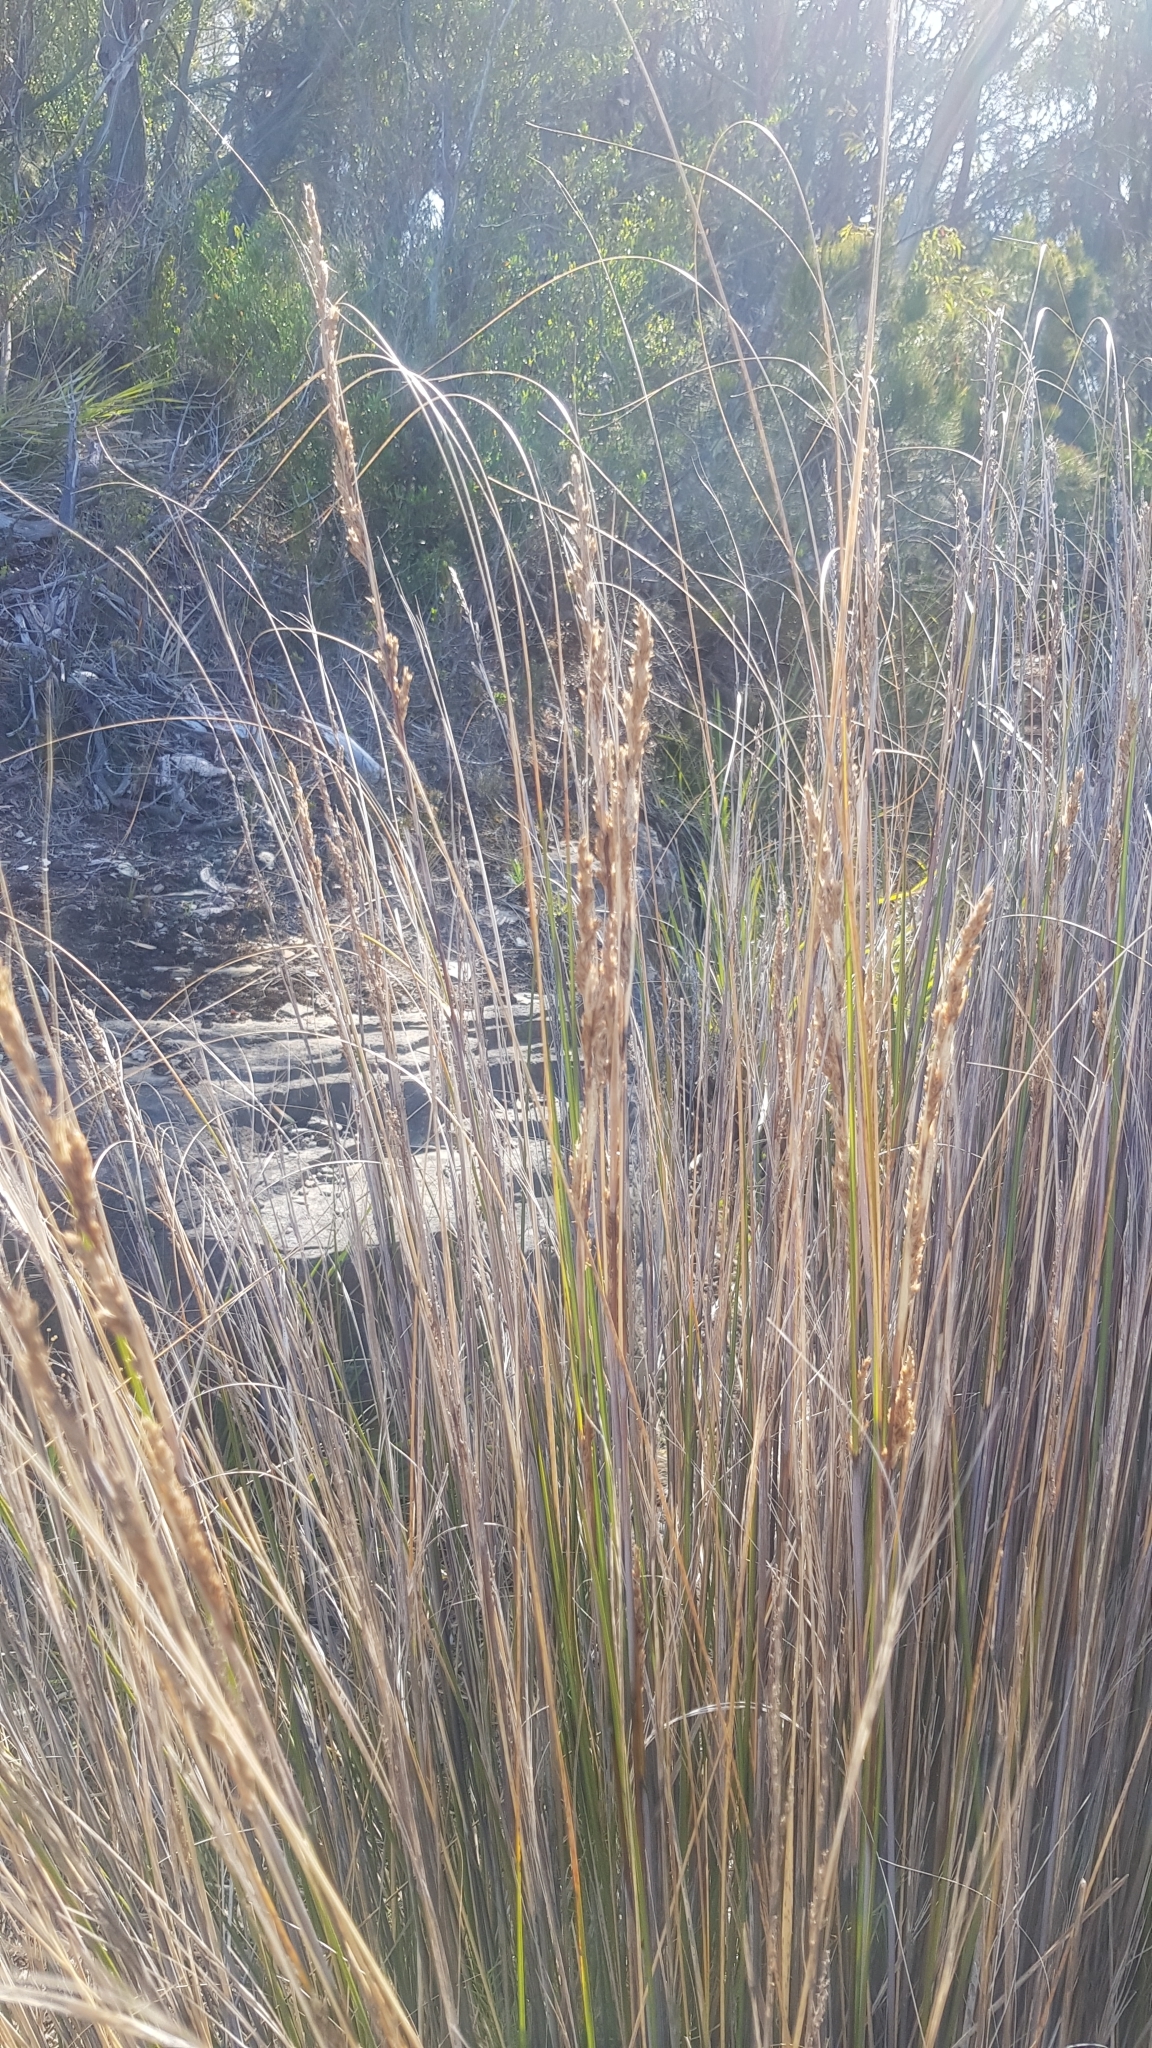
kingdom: Plantae
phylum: Tracheophyta
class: Liliopsida
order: Poales
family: Cyperaceae
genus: Gahnia
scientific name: Gahnia filum
